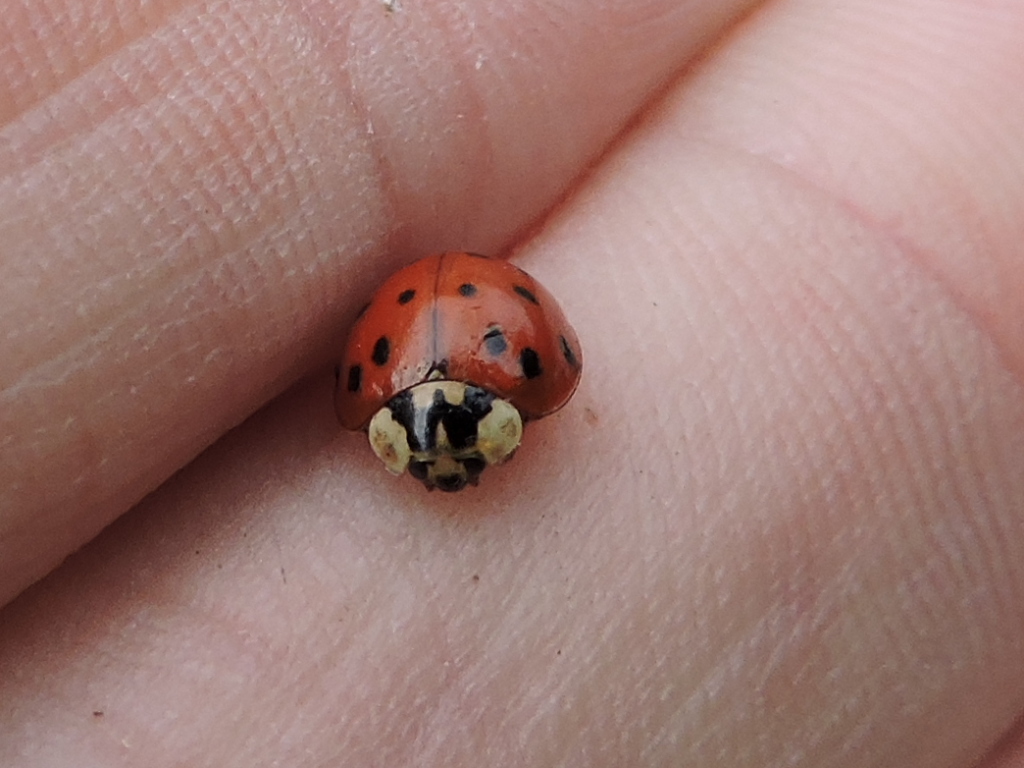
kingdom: Animalia
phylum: Arthropoda
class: Insecta
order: Coleoptera
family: Coccinellidae
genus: Harmonia
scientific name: Harmonia axyridis
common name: Harlequin ladybird
